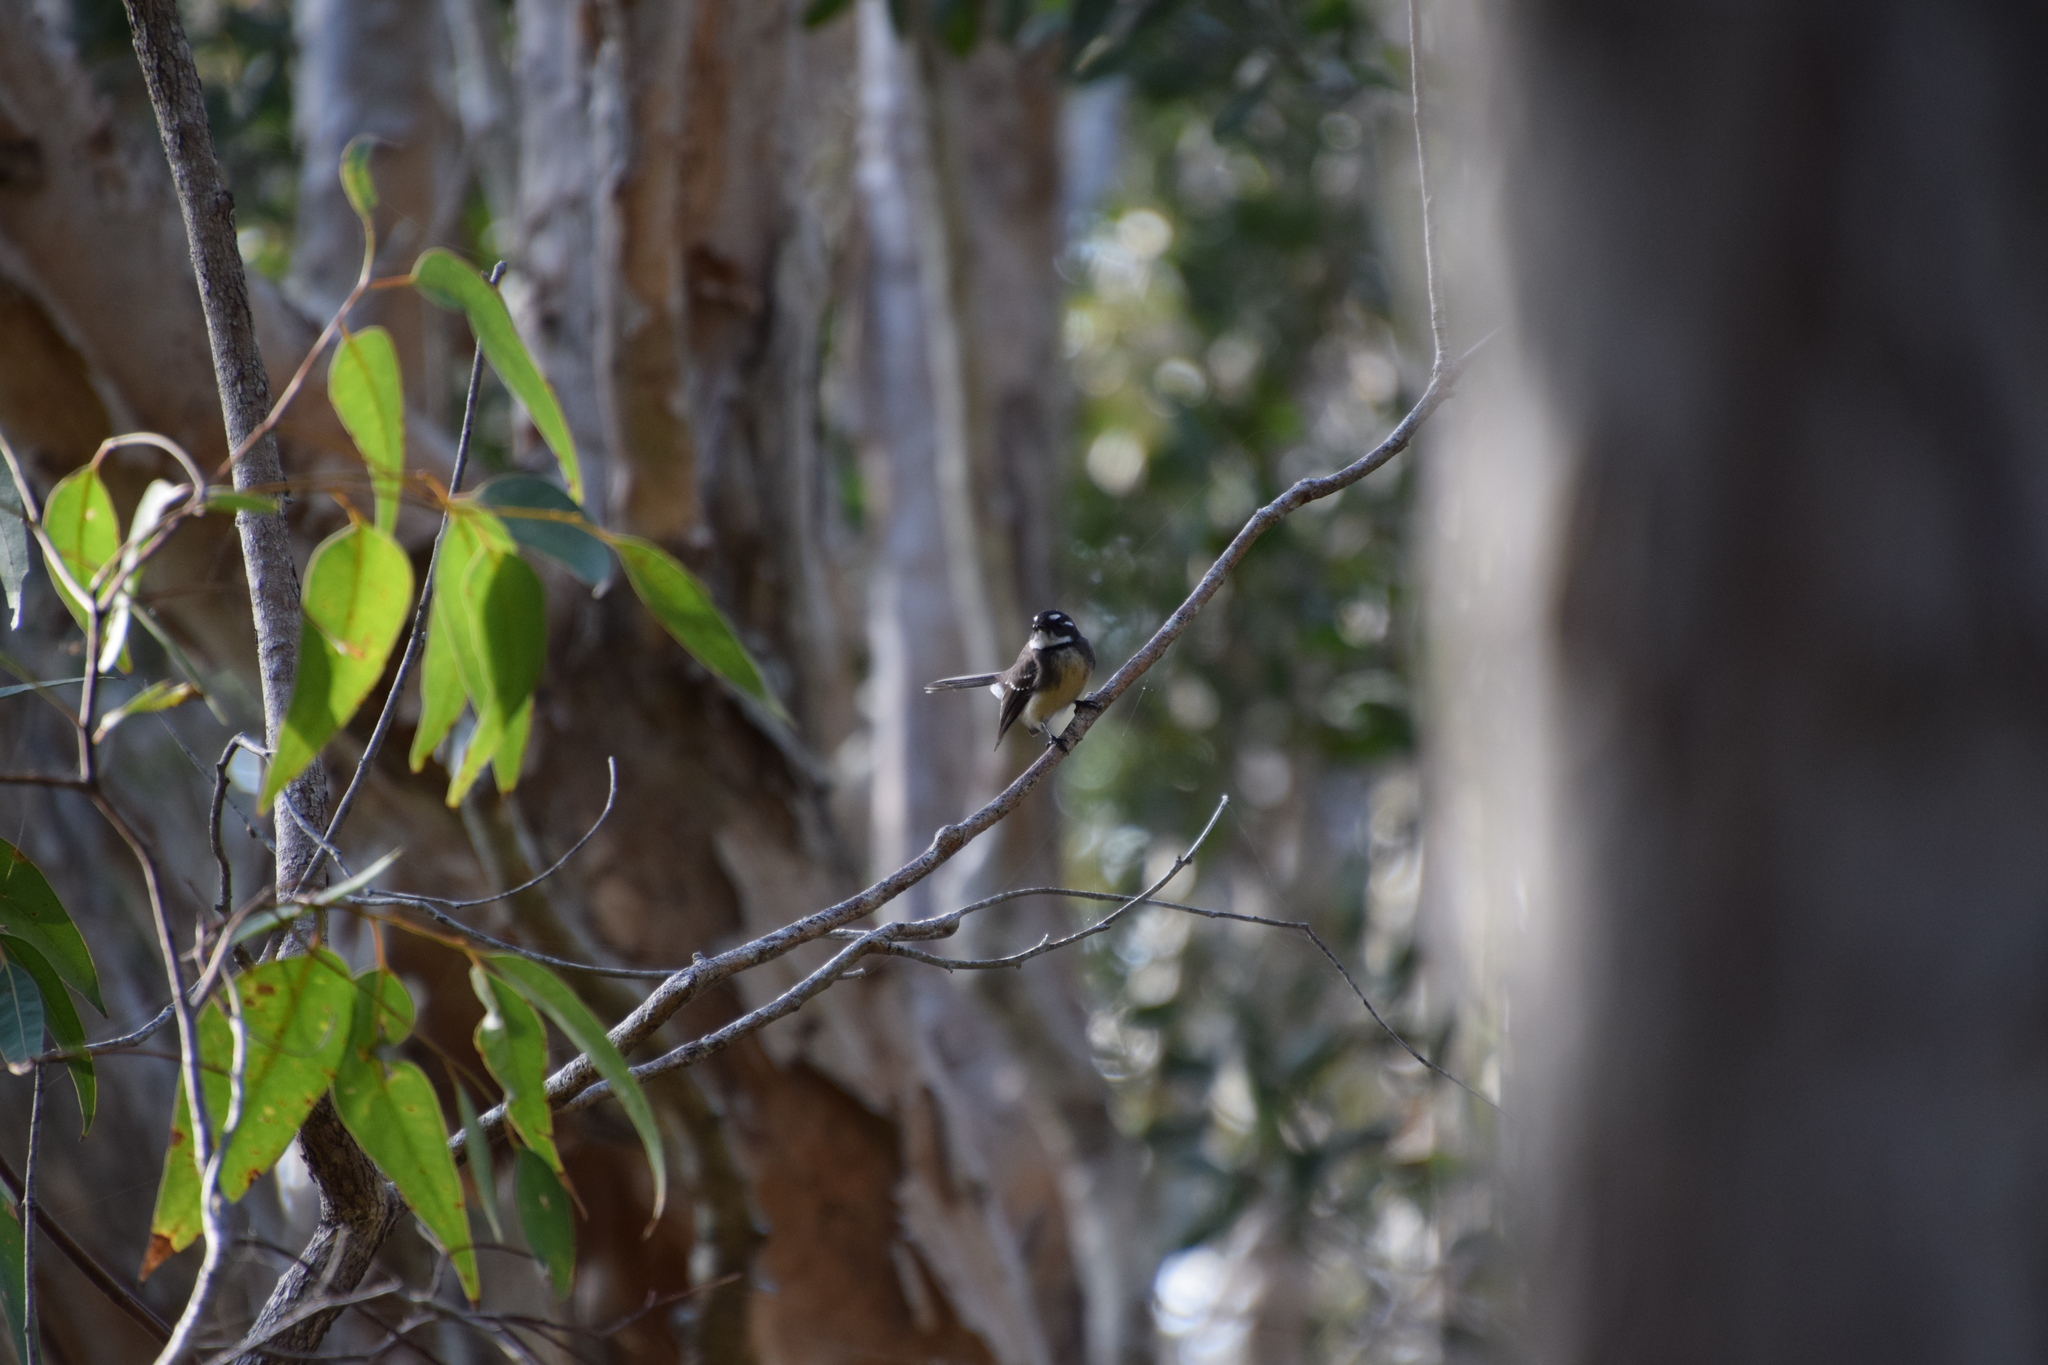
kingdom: Animalia
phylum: Chordata
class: Aves
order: Passeriformes
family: Rhipiduridae
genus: Rhipidura
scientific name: Rhipidura albiscapa
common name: Grey fantail
